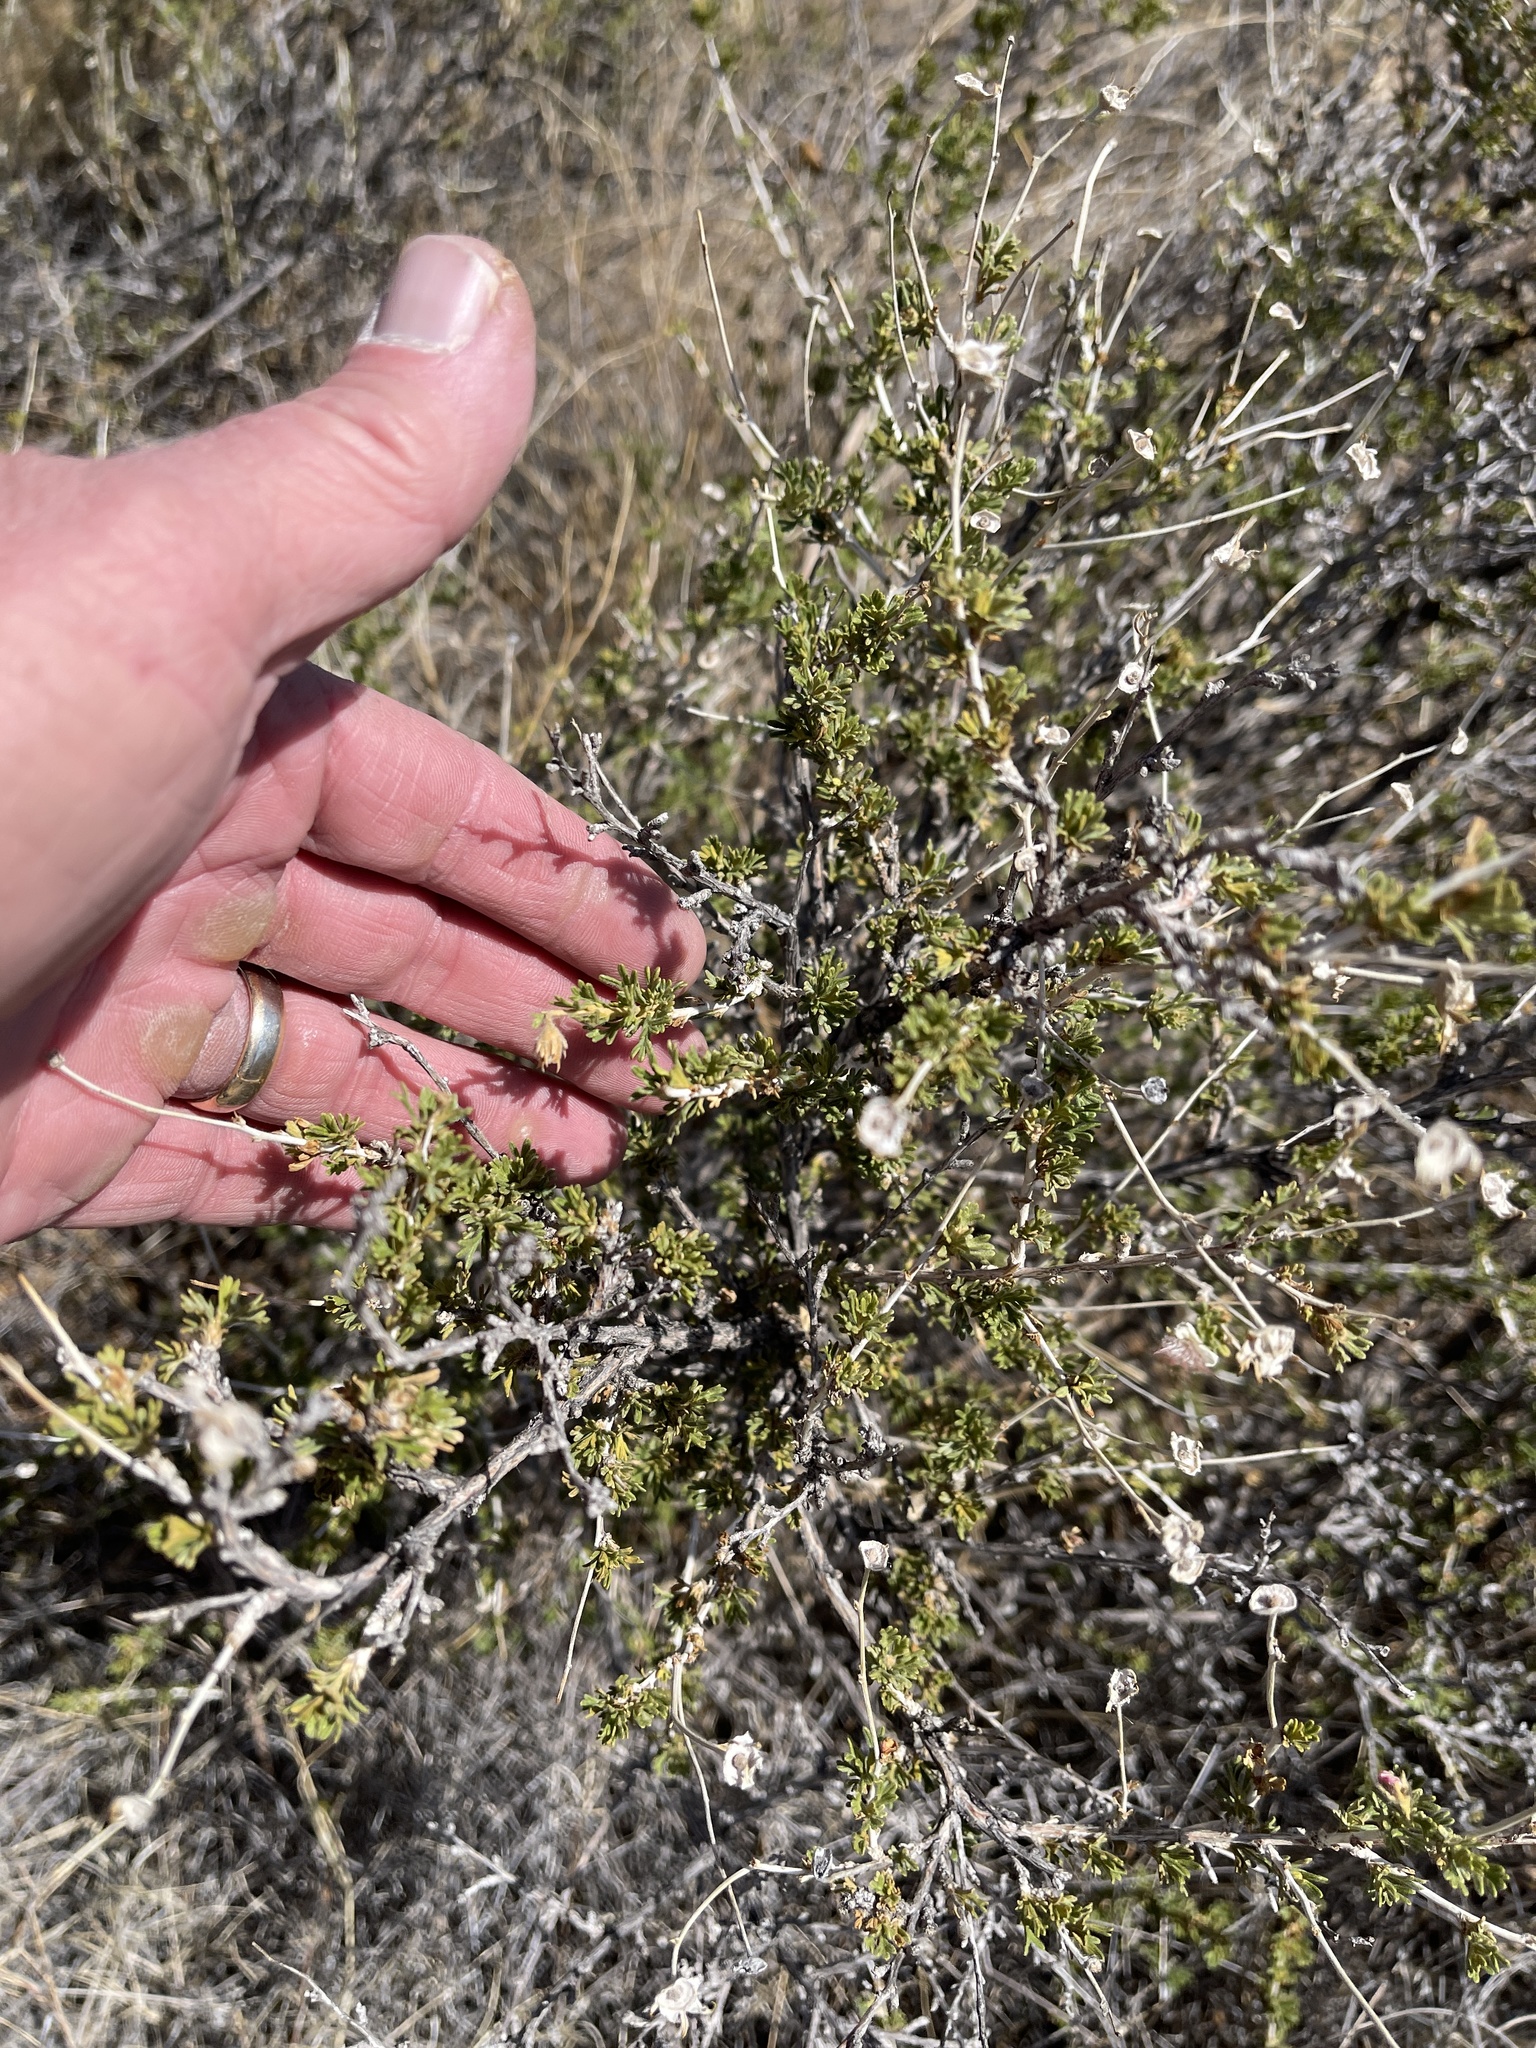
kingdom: Plantae
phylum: Tracheophyta
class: Magnoliopsida
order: Rosales
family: Rosaceae
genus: Fallugia
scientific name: Fallugia paradoxa
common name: Apache-plume
